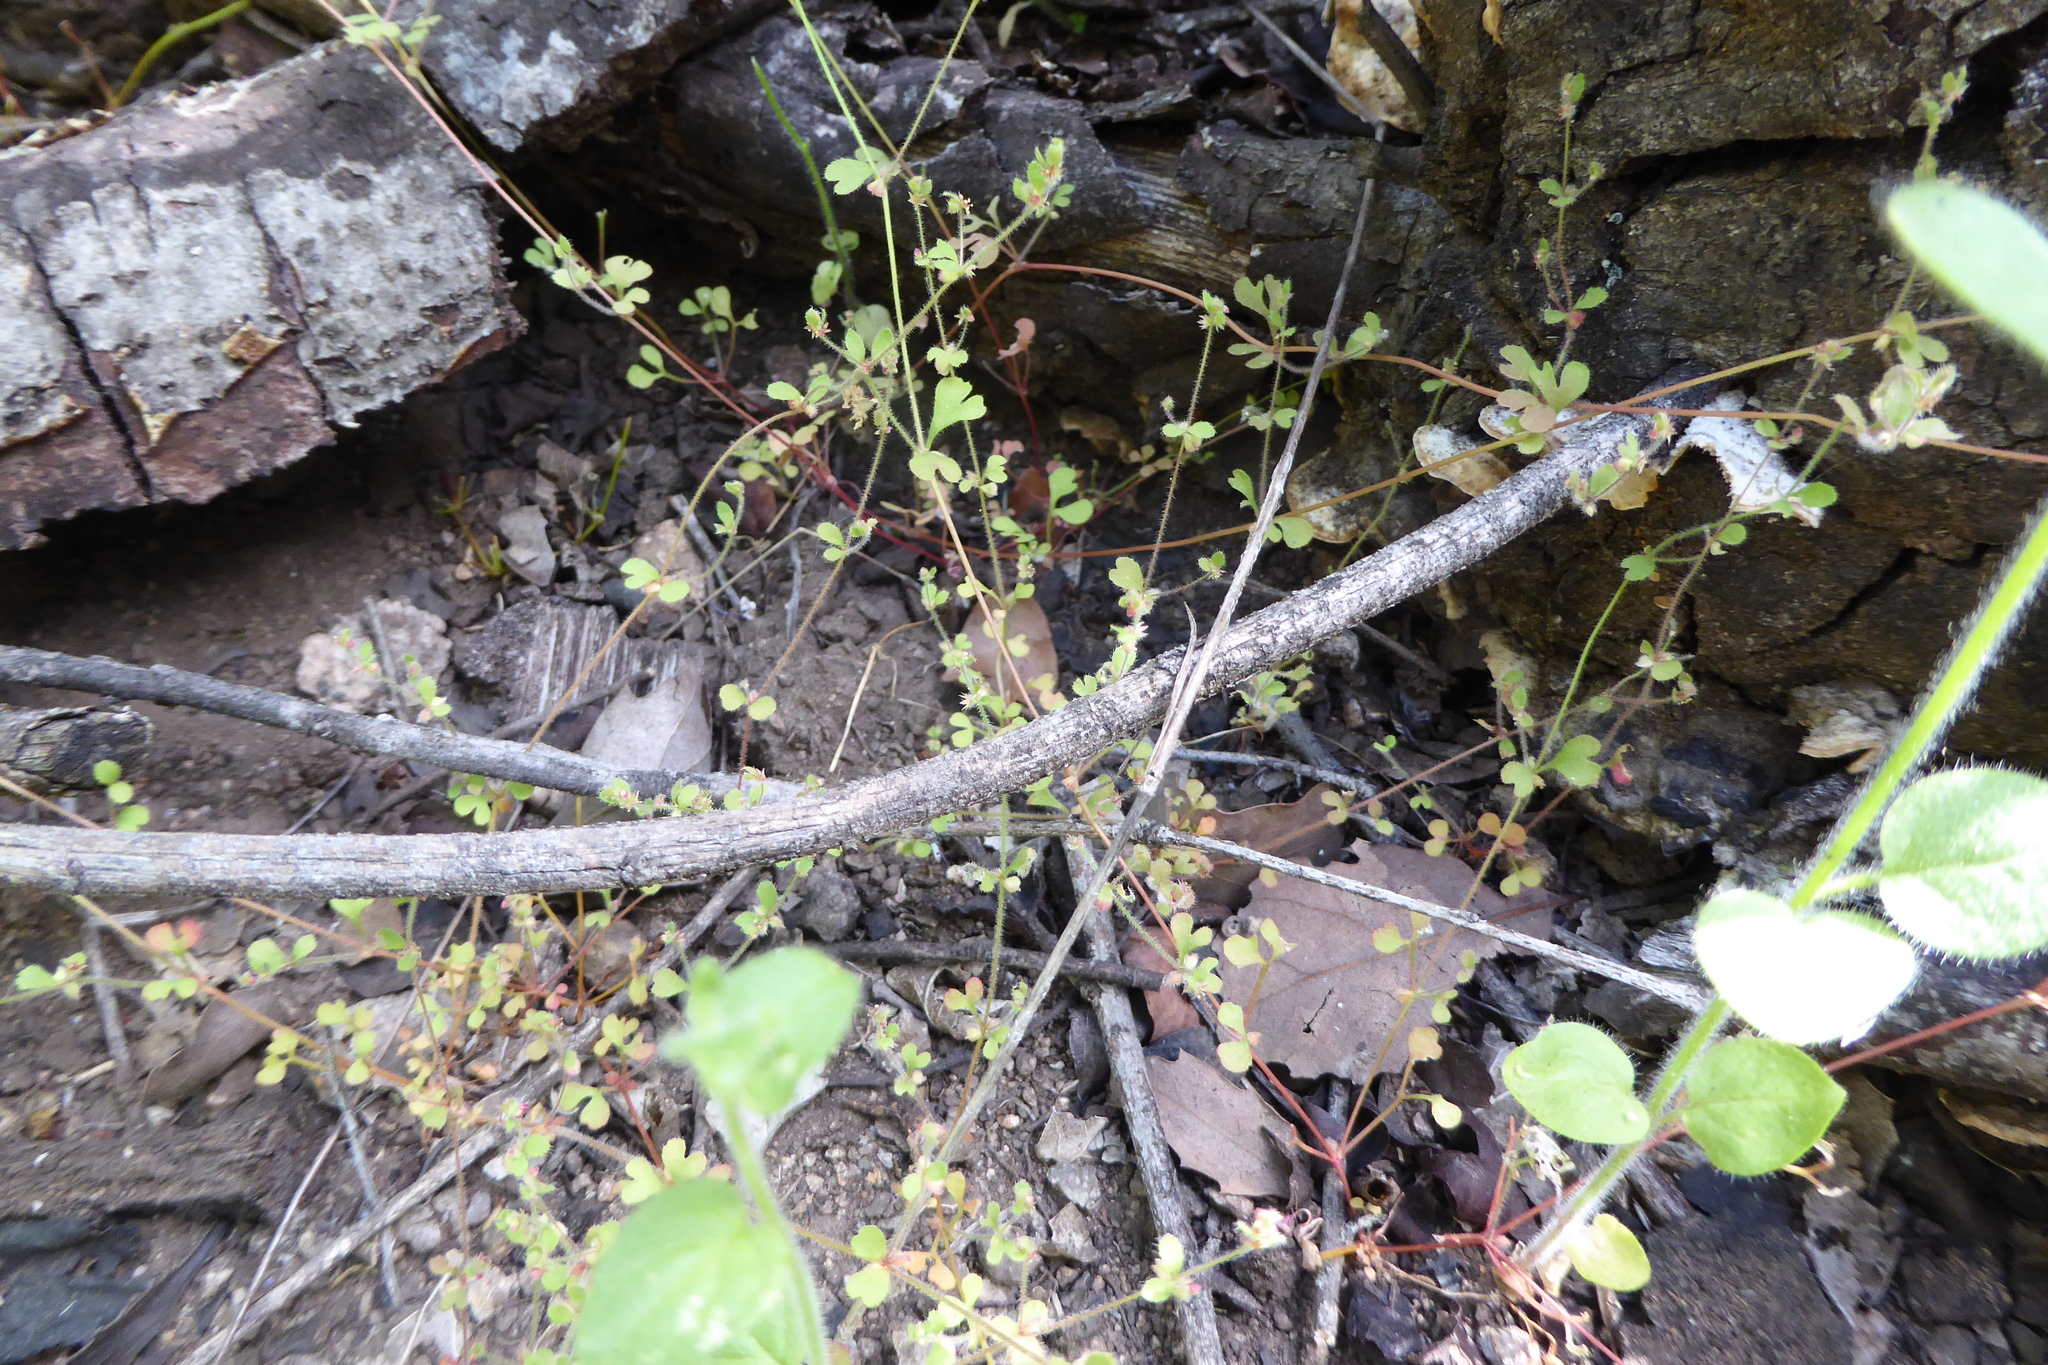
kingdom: Plantae
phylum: Tracheophyta
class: Magnoliopsida
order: Caryophyllales
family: Polygonaceae
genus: Pterostegia
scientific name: Pterostegia drymarioides
